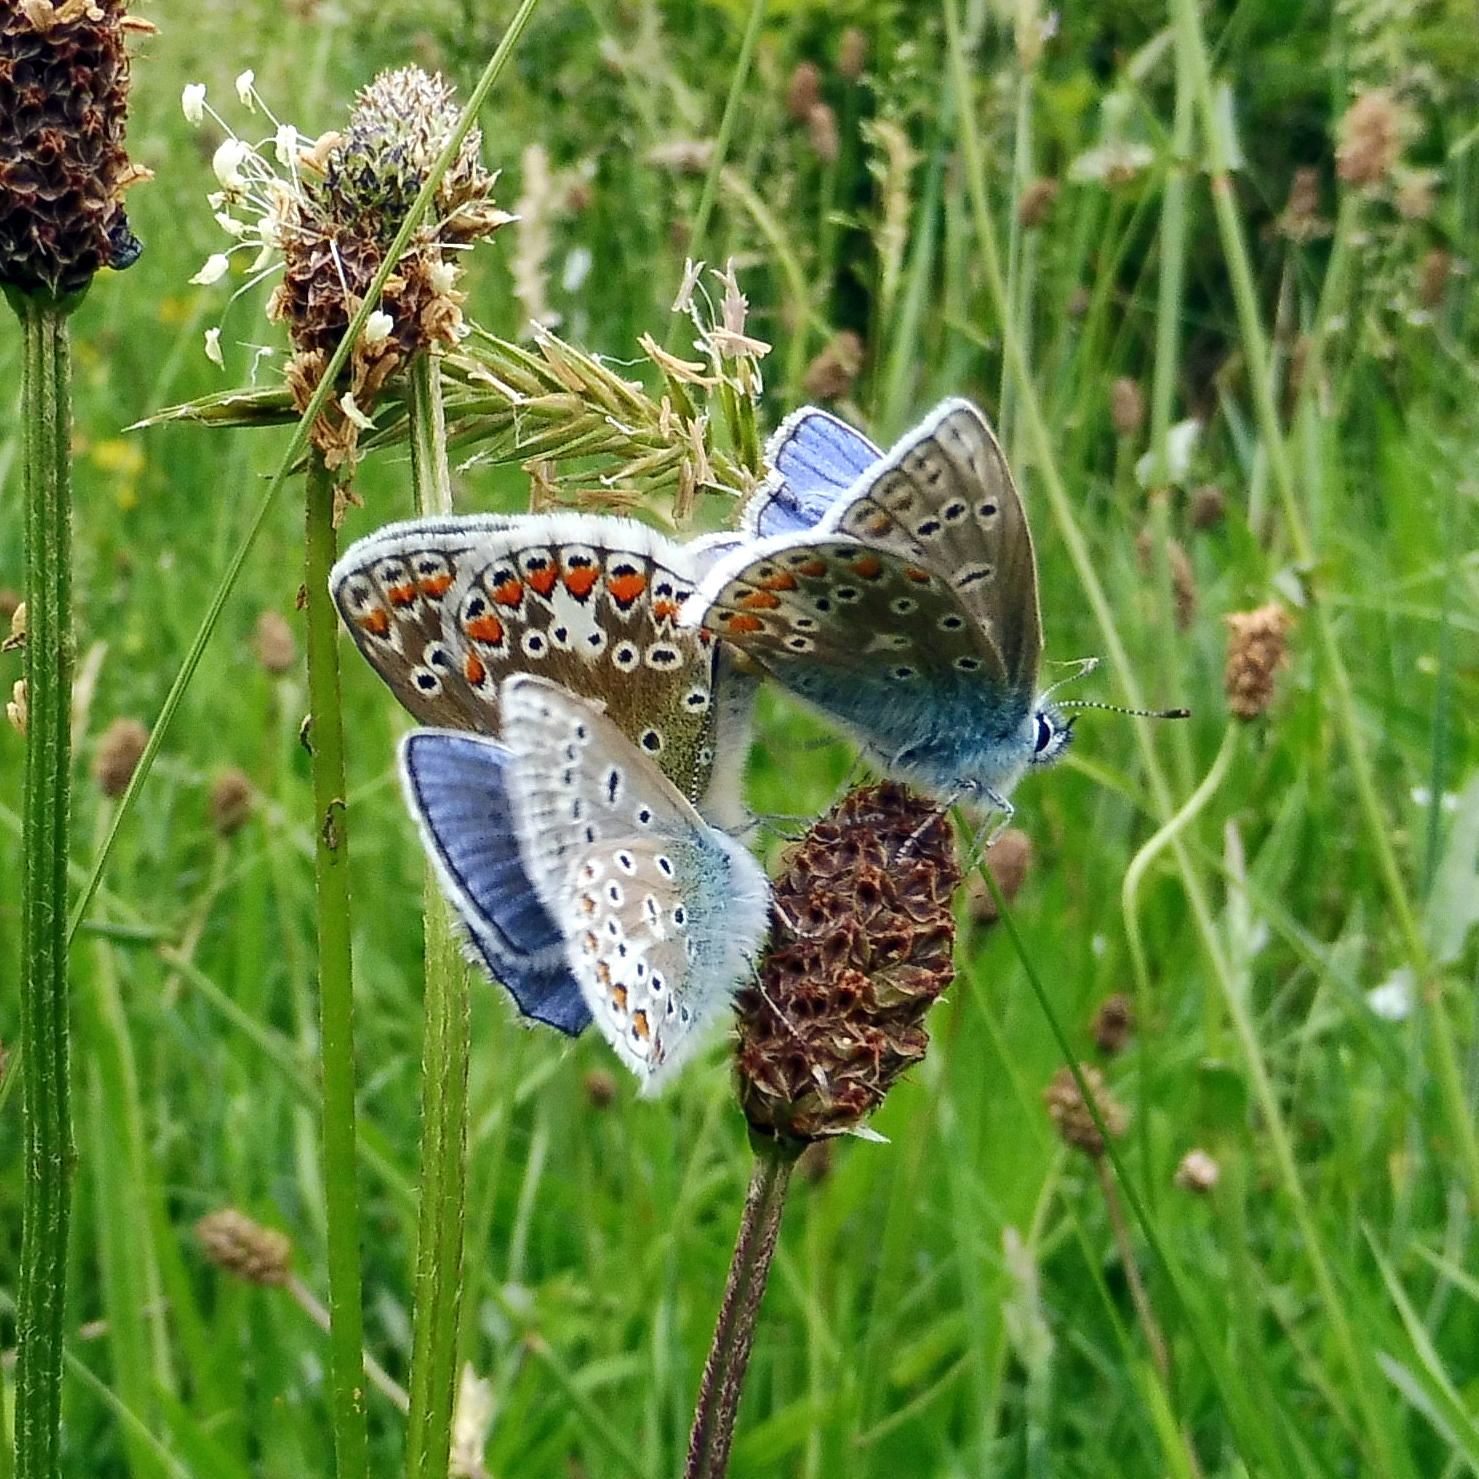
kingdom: Animalia
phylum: Arthropoda
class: Insecta
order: Lepidoptera
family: Lycaenidae
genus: Polyommatus
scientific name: Polyommatus icarus
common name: Common blue
